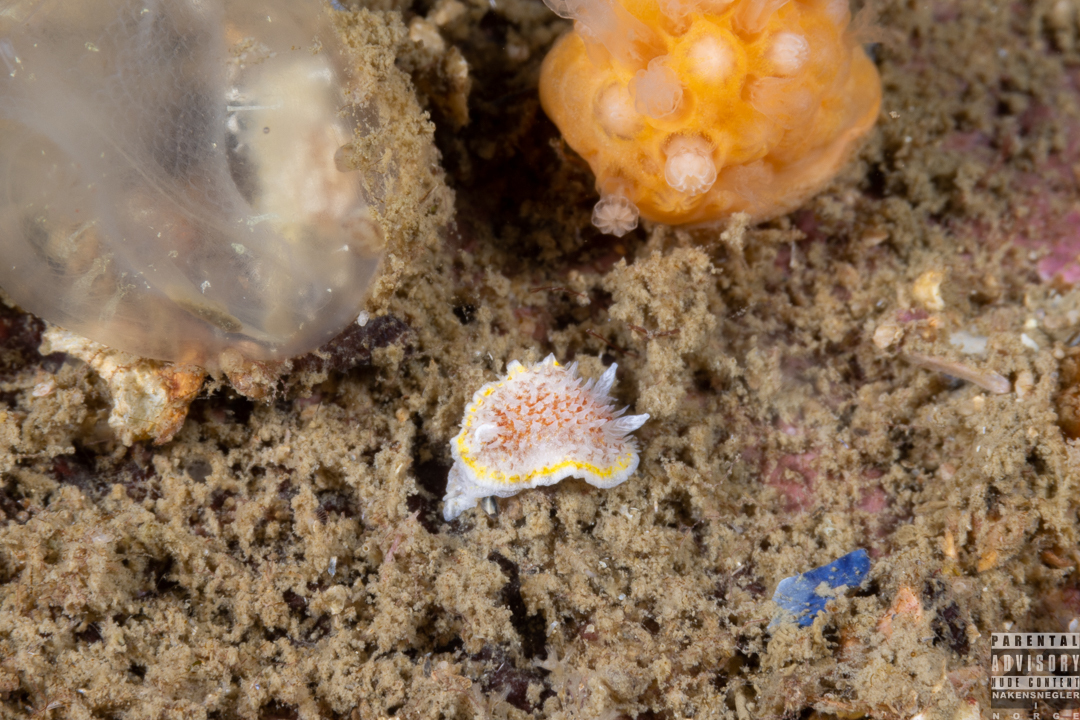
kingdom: Animalia
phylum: Mollusca
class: Gastropoda
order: Nudibranchia
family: Calycidorididae
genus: Diaphorodoris
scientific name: Diaphorodoris luteocincta
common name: Fried egg nudibranch
